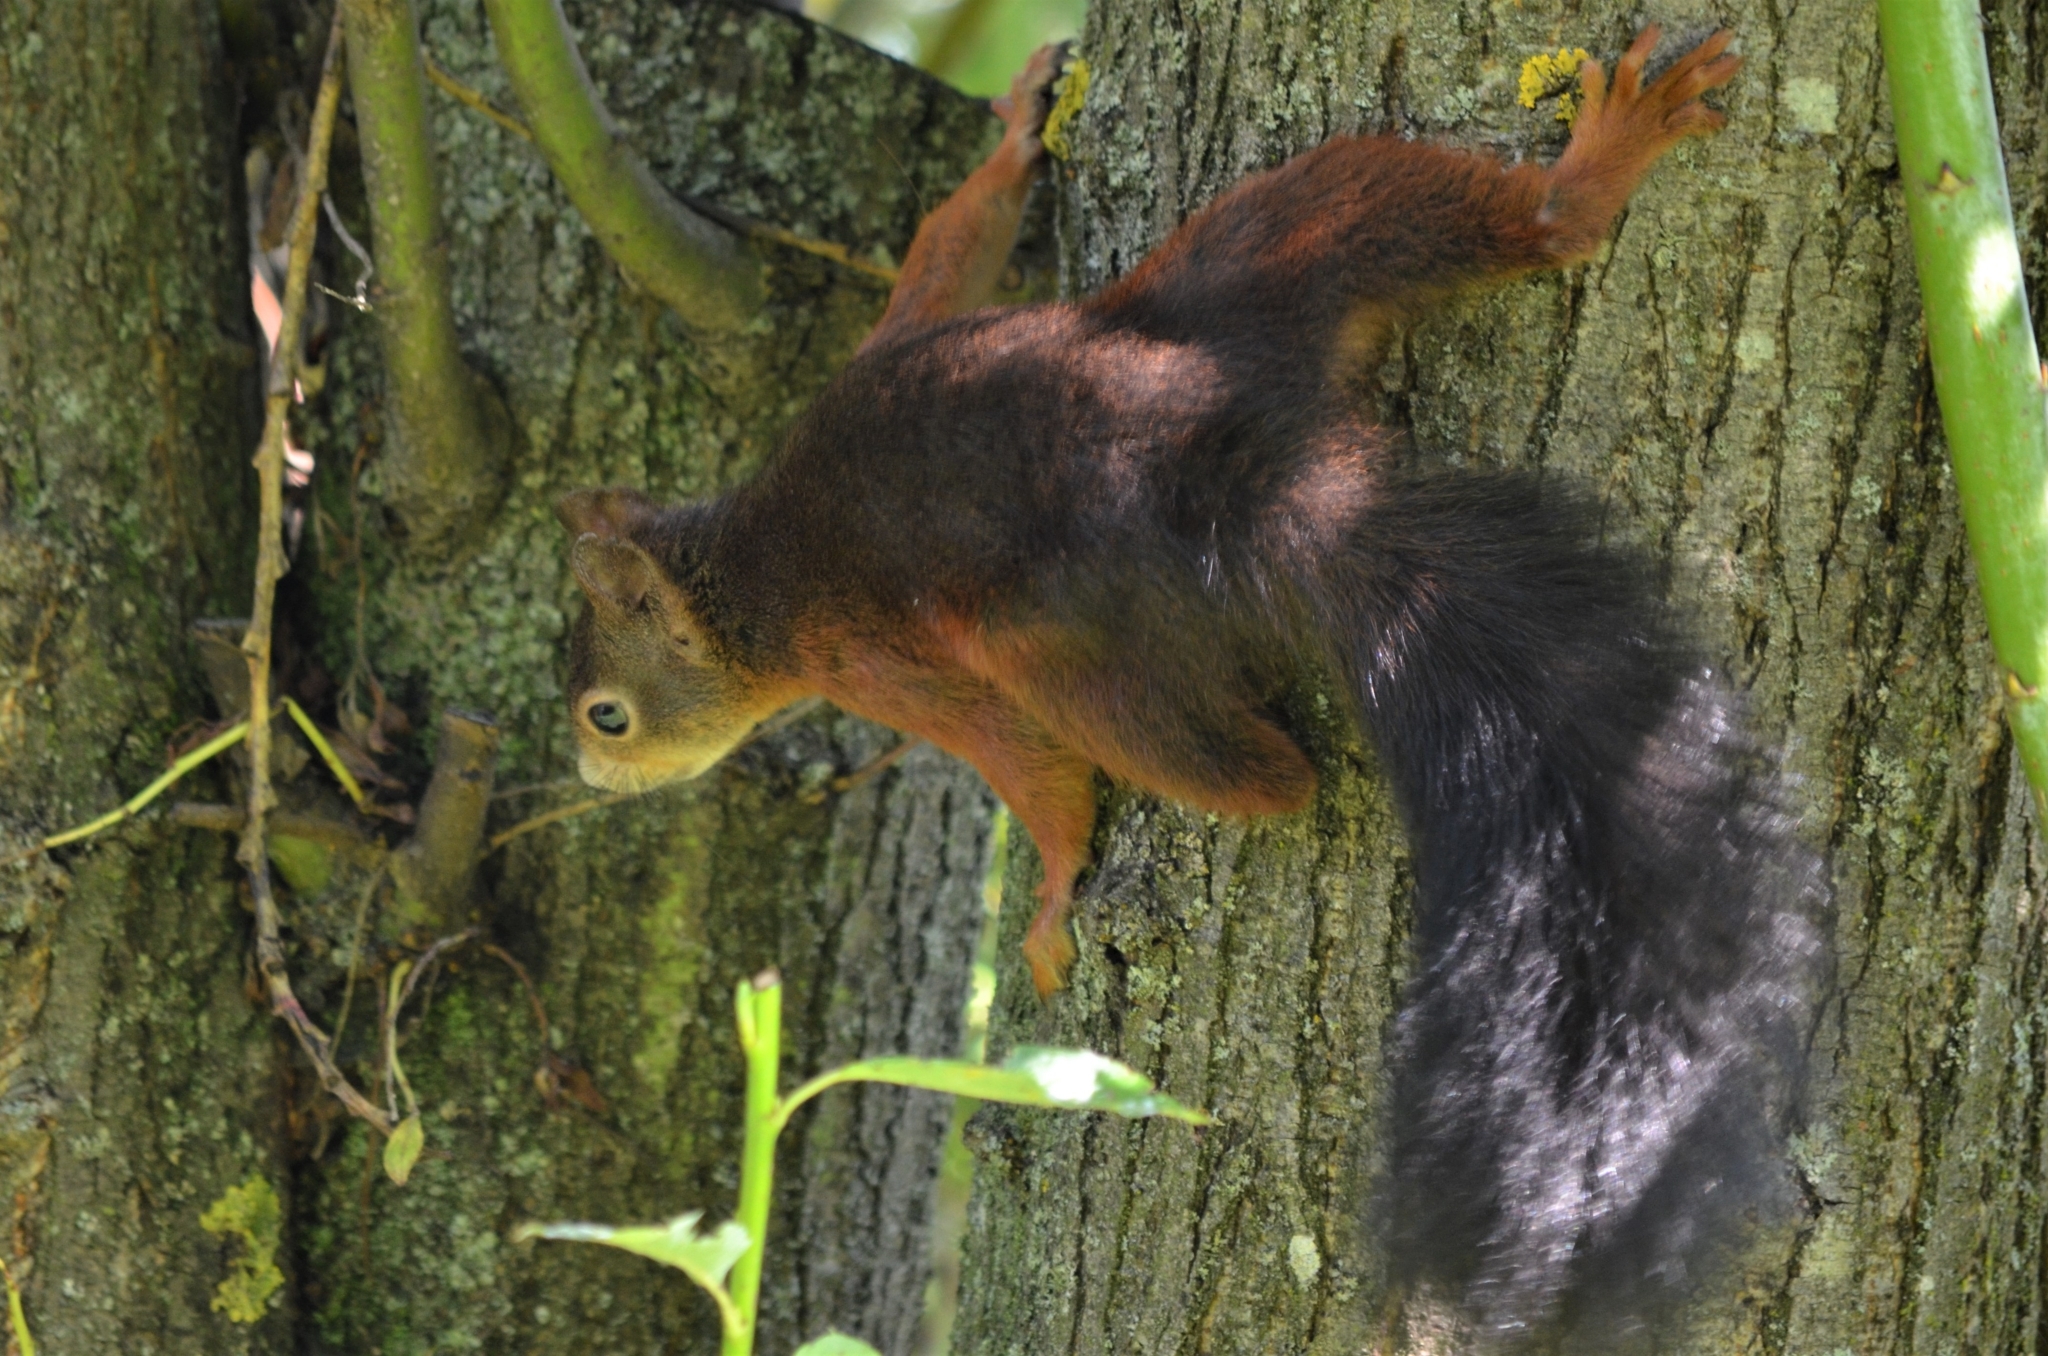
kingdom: Animalia
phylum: Chordata
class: Mammalia
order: Rodentia
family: Sciuridae
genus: Sciurus
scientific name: Sciurus vulgaris
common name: Eurasian red squirrel
